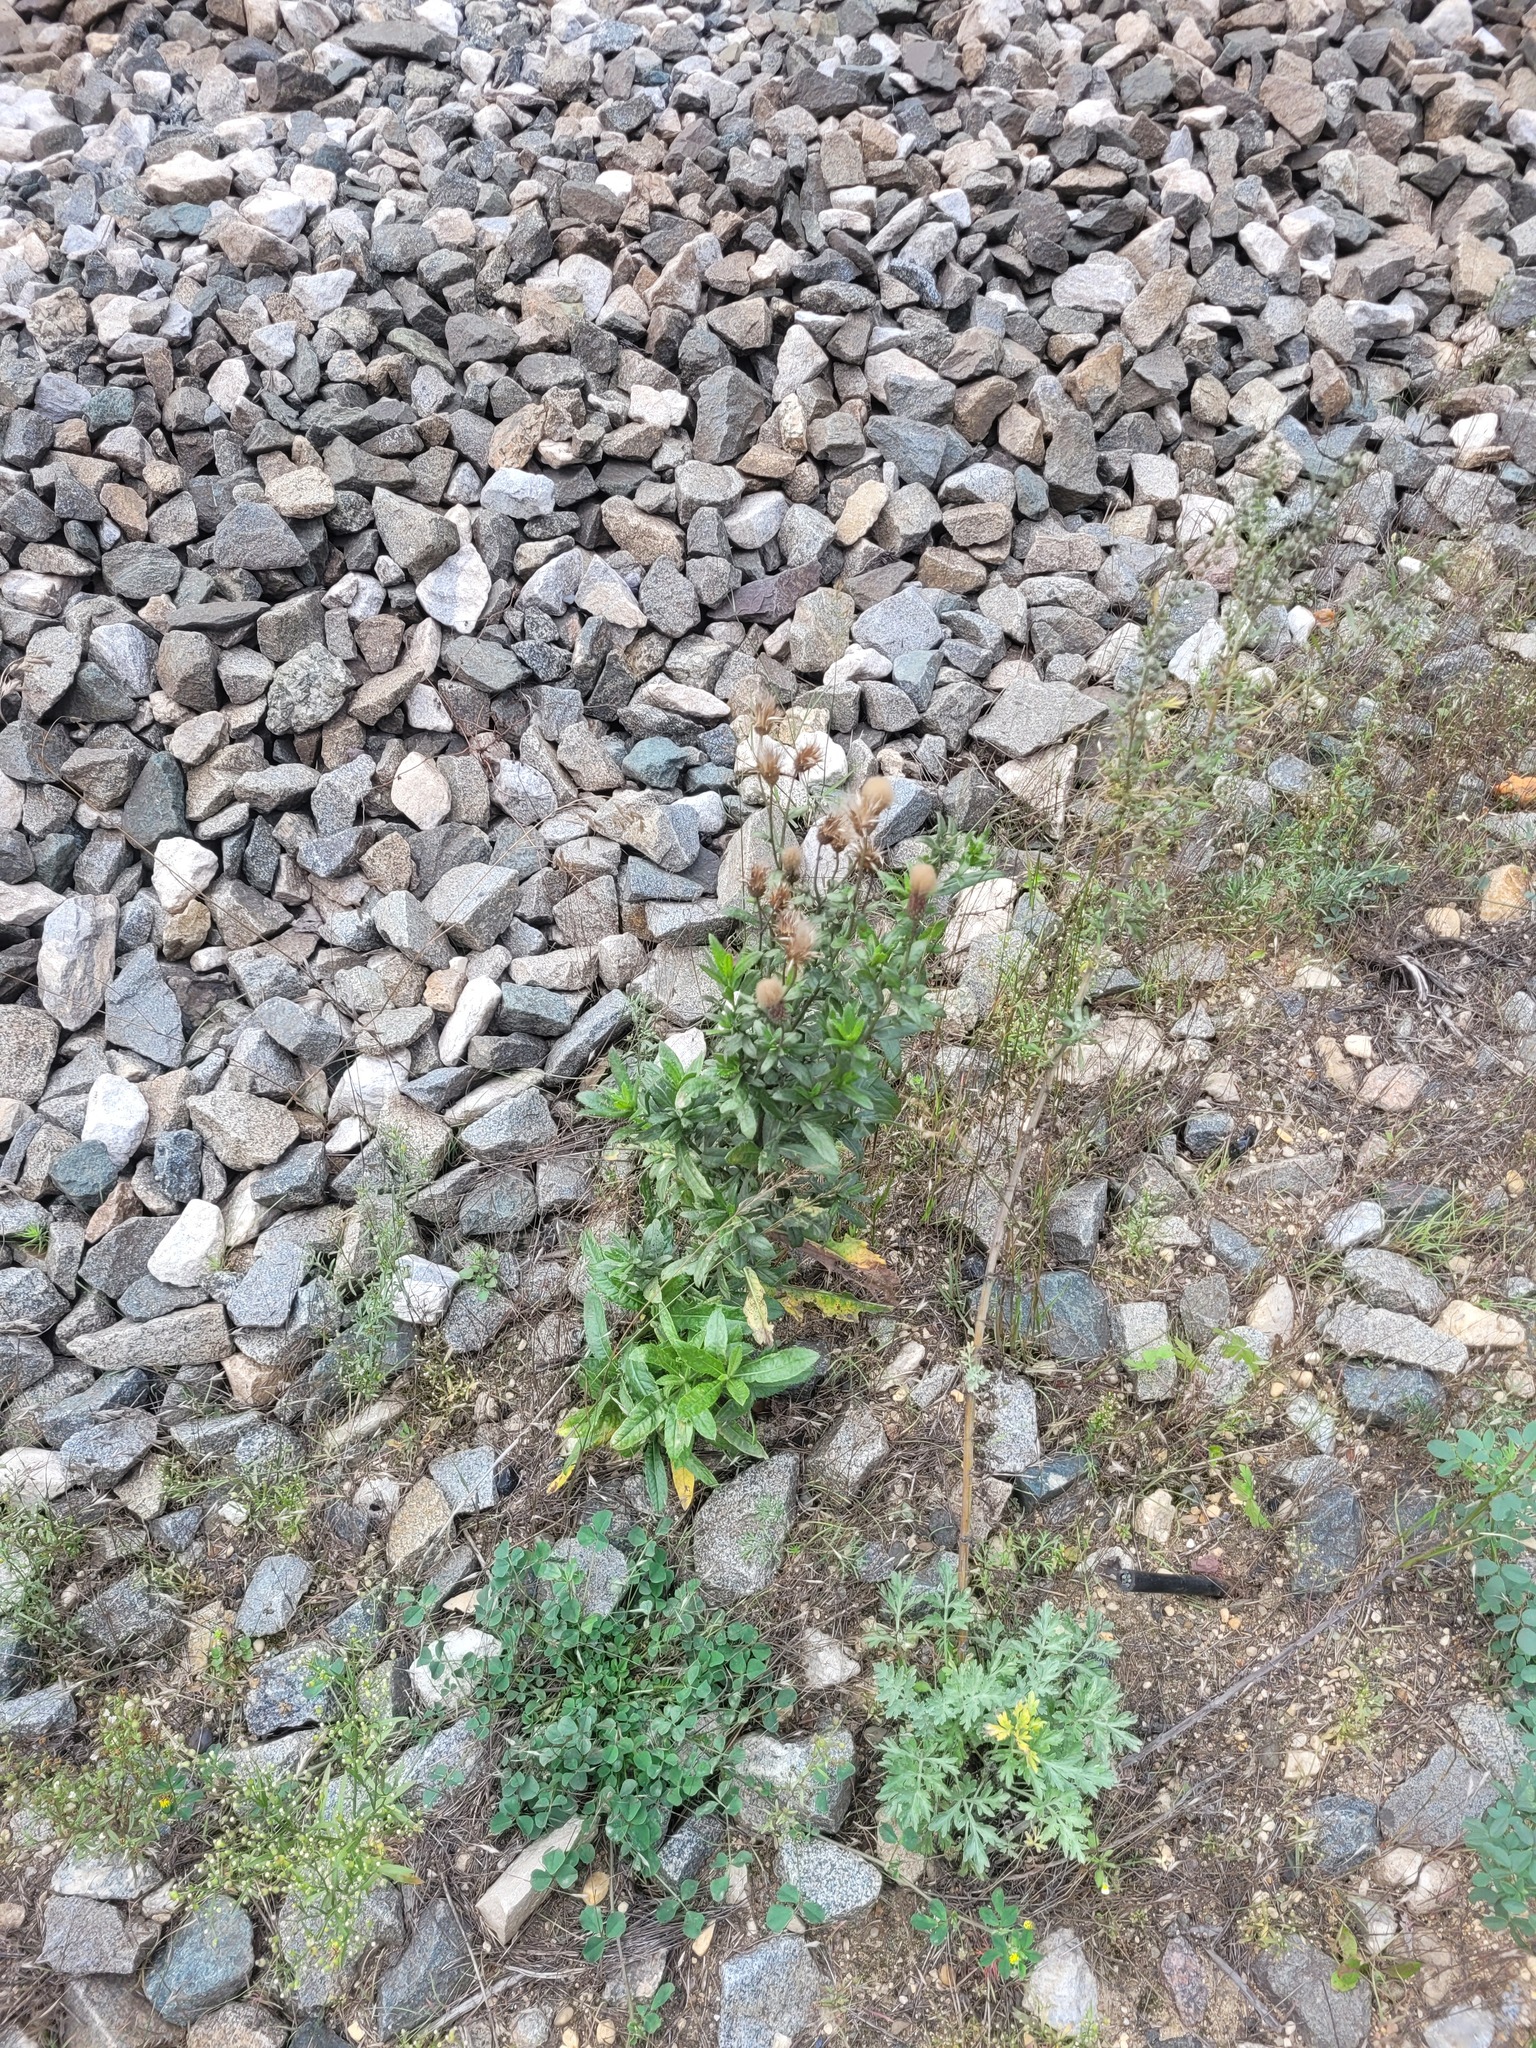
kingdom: Plantae
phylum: Tracheophyta
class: Magnoliopsida
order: Asterales
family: Asteraceae
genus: Cirsium
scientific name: Cirsium arvense
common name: Creeping thistle
